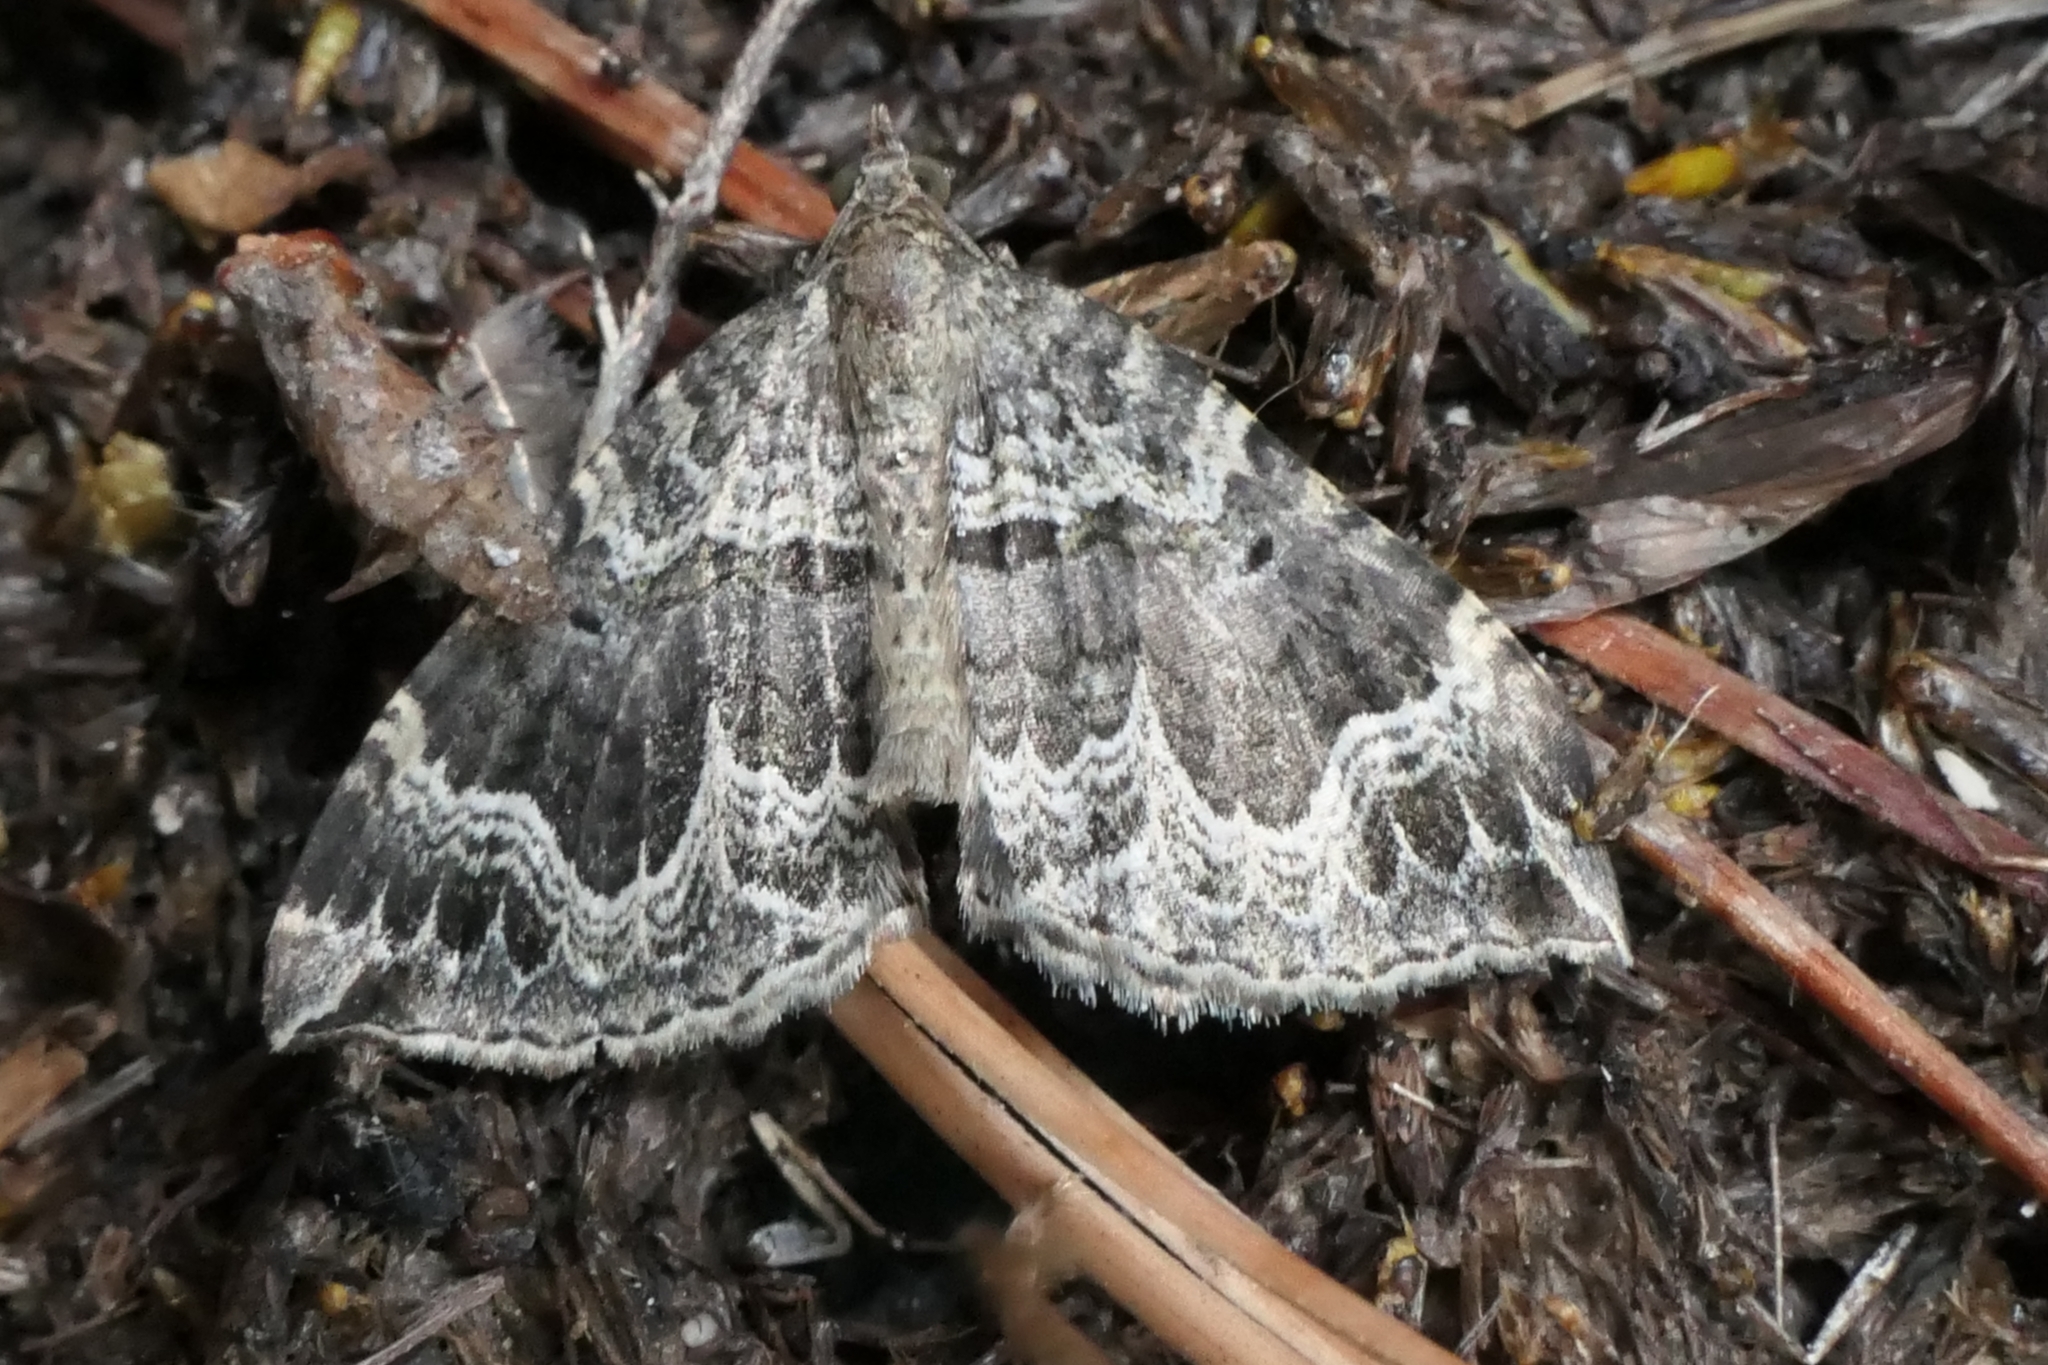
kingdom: Animalia
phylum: Arthropoda
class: Insecta
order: Lepidoptera
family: Geometridae
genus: Hydriomena
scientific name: Hydriomena rixata
